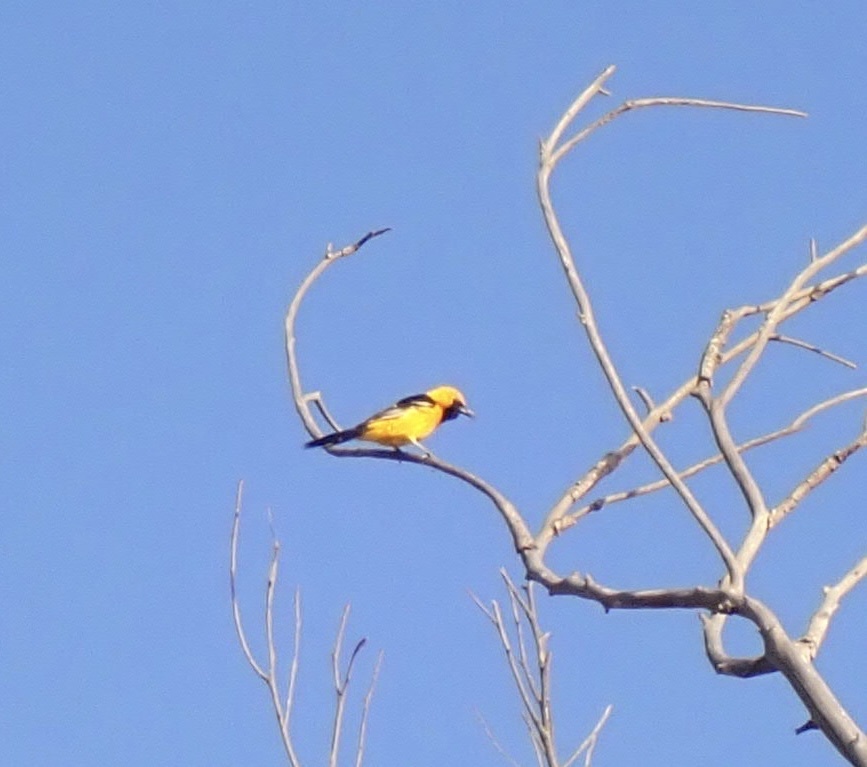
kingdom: Animalia
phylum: Chordata
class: Aves
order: Passeriformes
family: Icteridae
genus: Icterus
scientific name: Icterus cucullatus
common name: Hooded oriole
